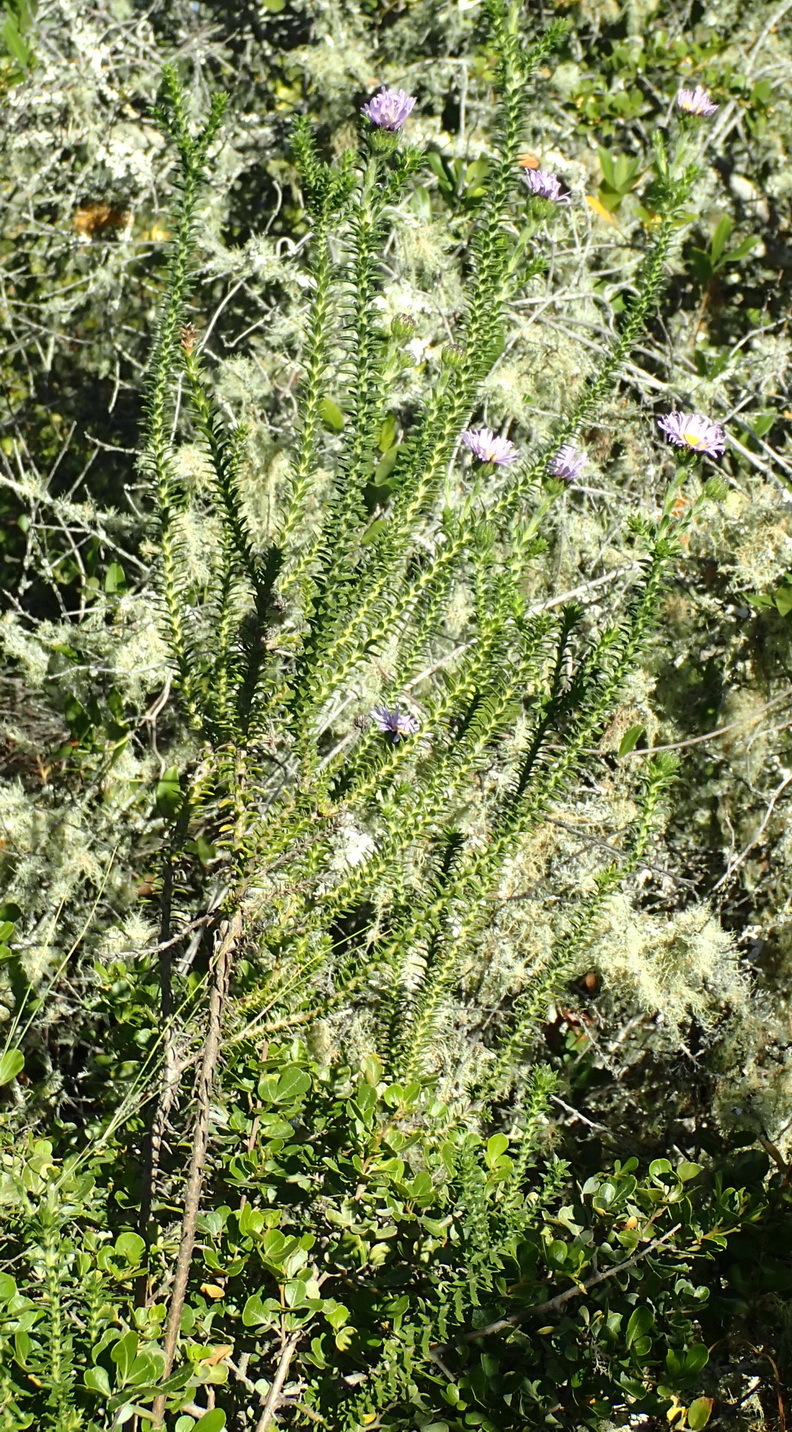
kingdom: Plantae
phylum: Tracheophyta
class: Magnoliopsida
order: Asterales
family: Asteraceae
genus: Felicia
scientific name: Felicia echinata
